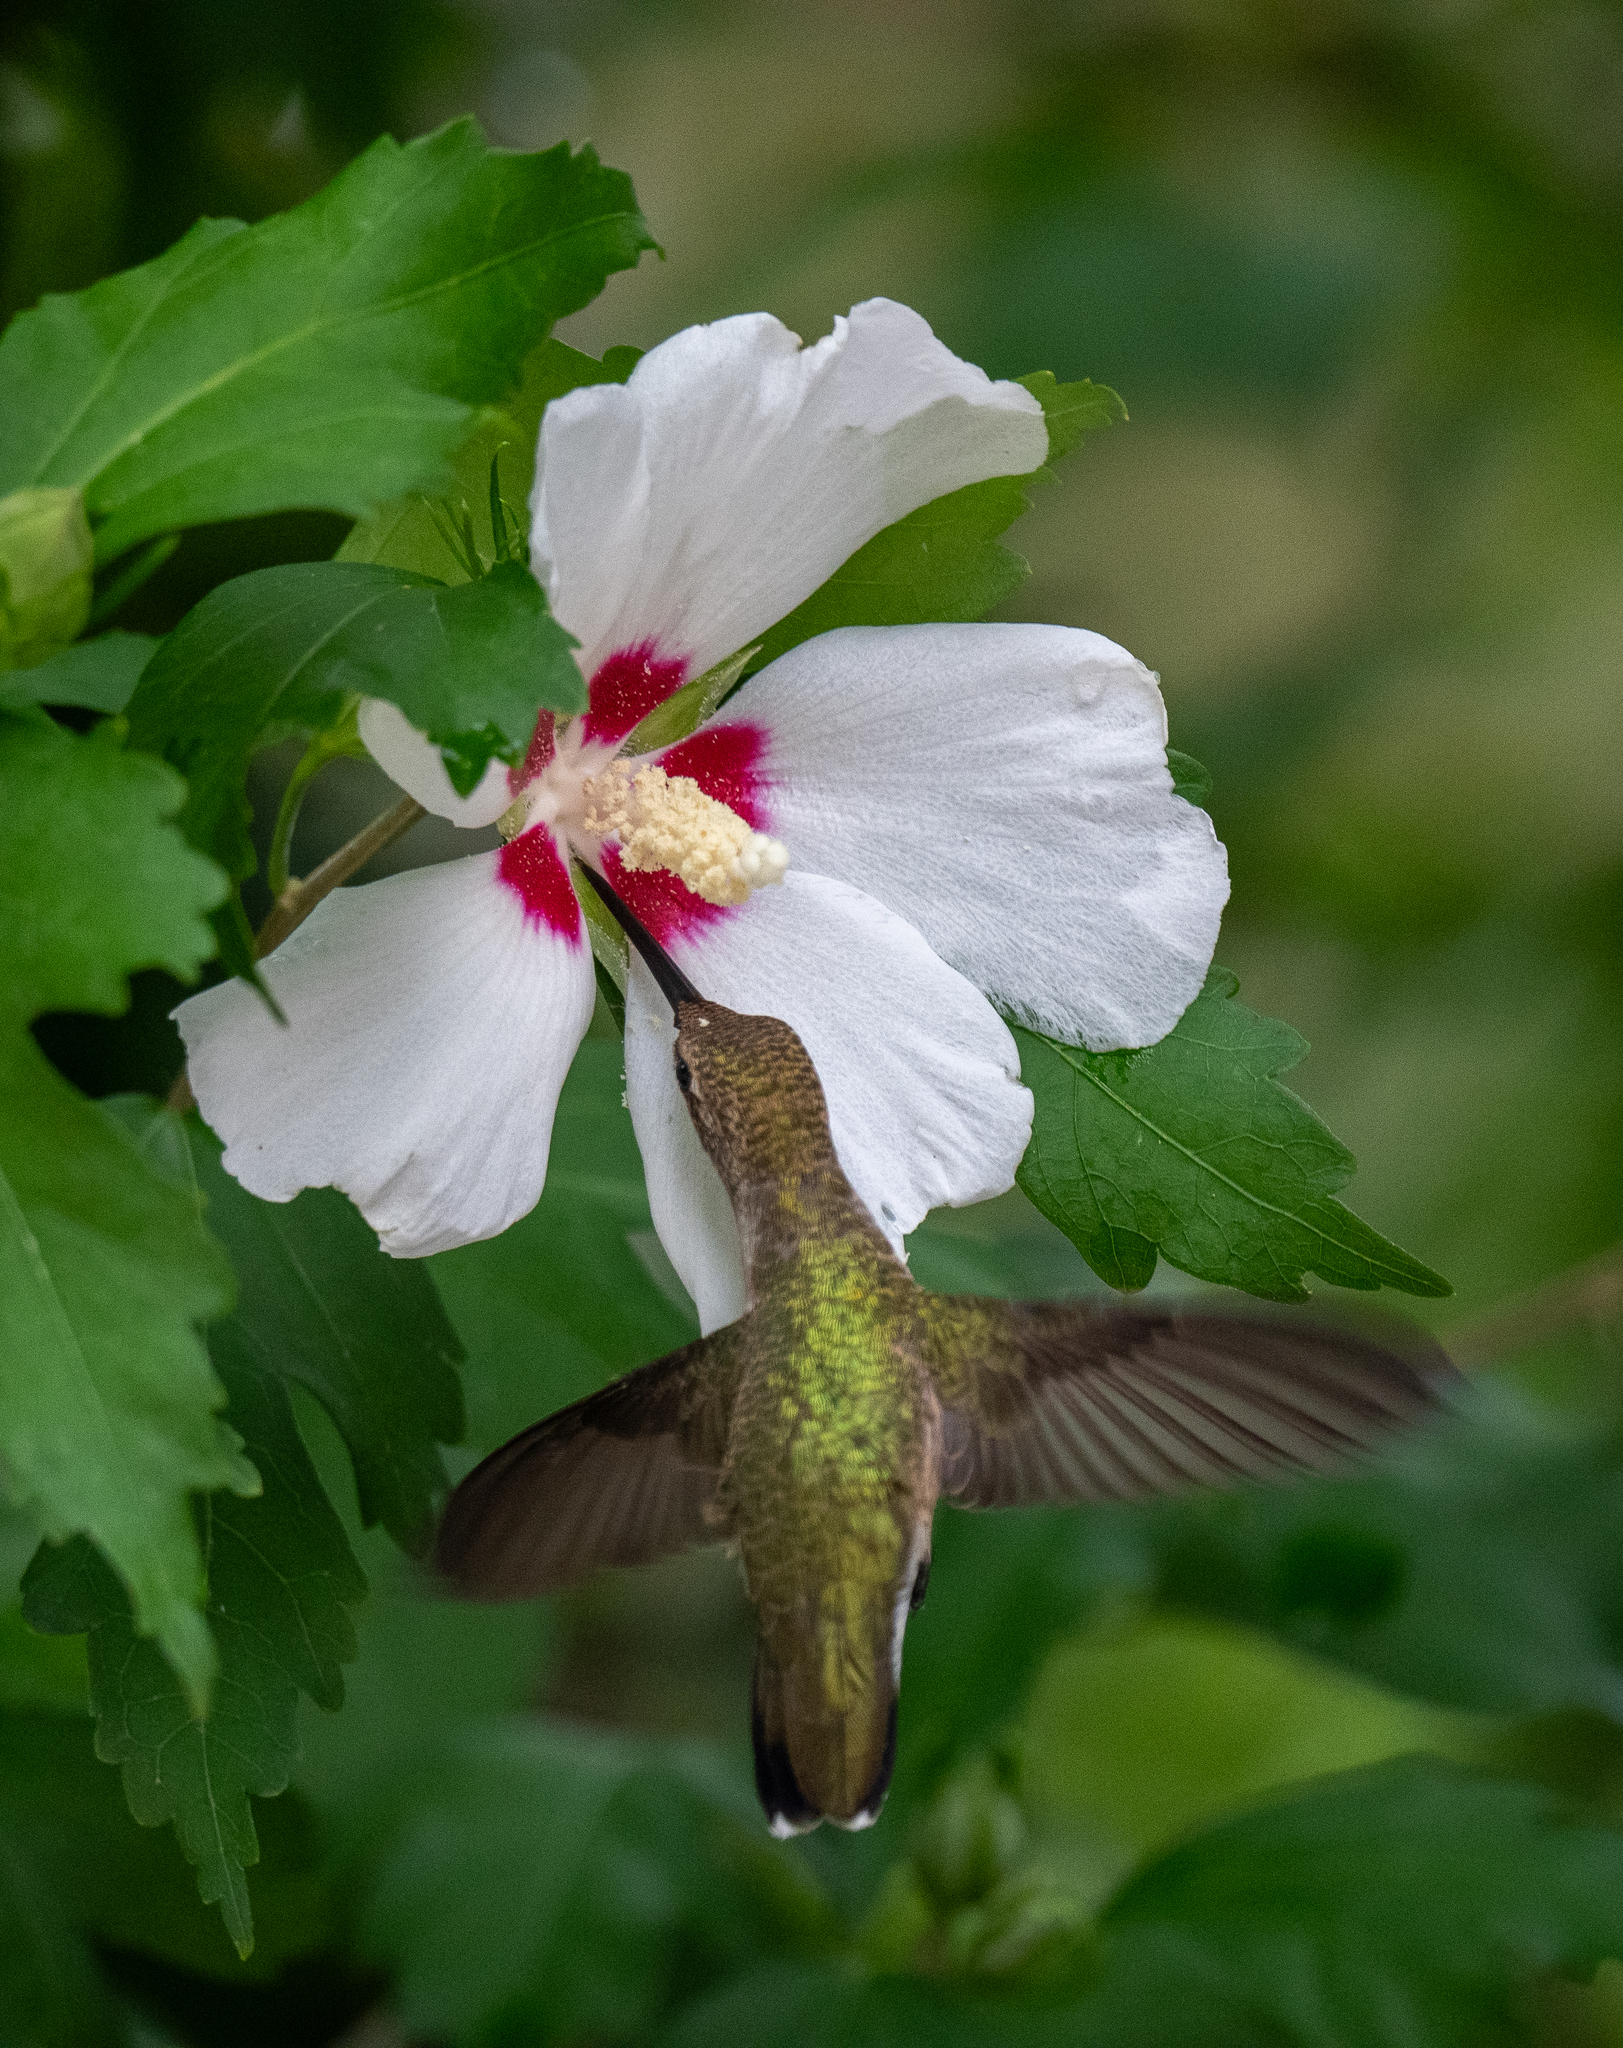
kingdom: Animalia
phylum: Chordata
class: Aves
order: Apodiformes
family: Trochilidae
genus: Archilochus
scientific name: Archilochus alexandri
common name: Black-chinned hummingbird
